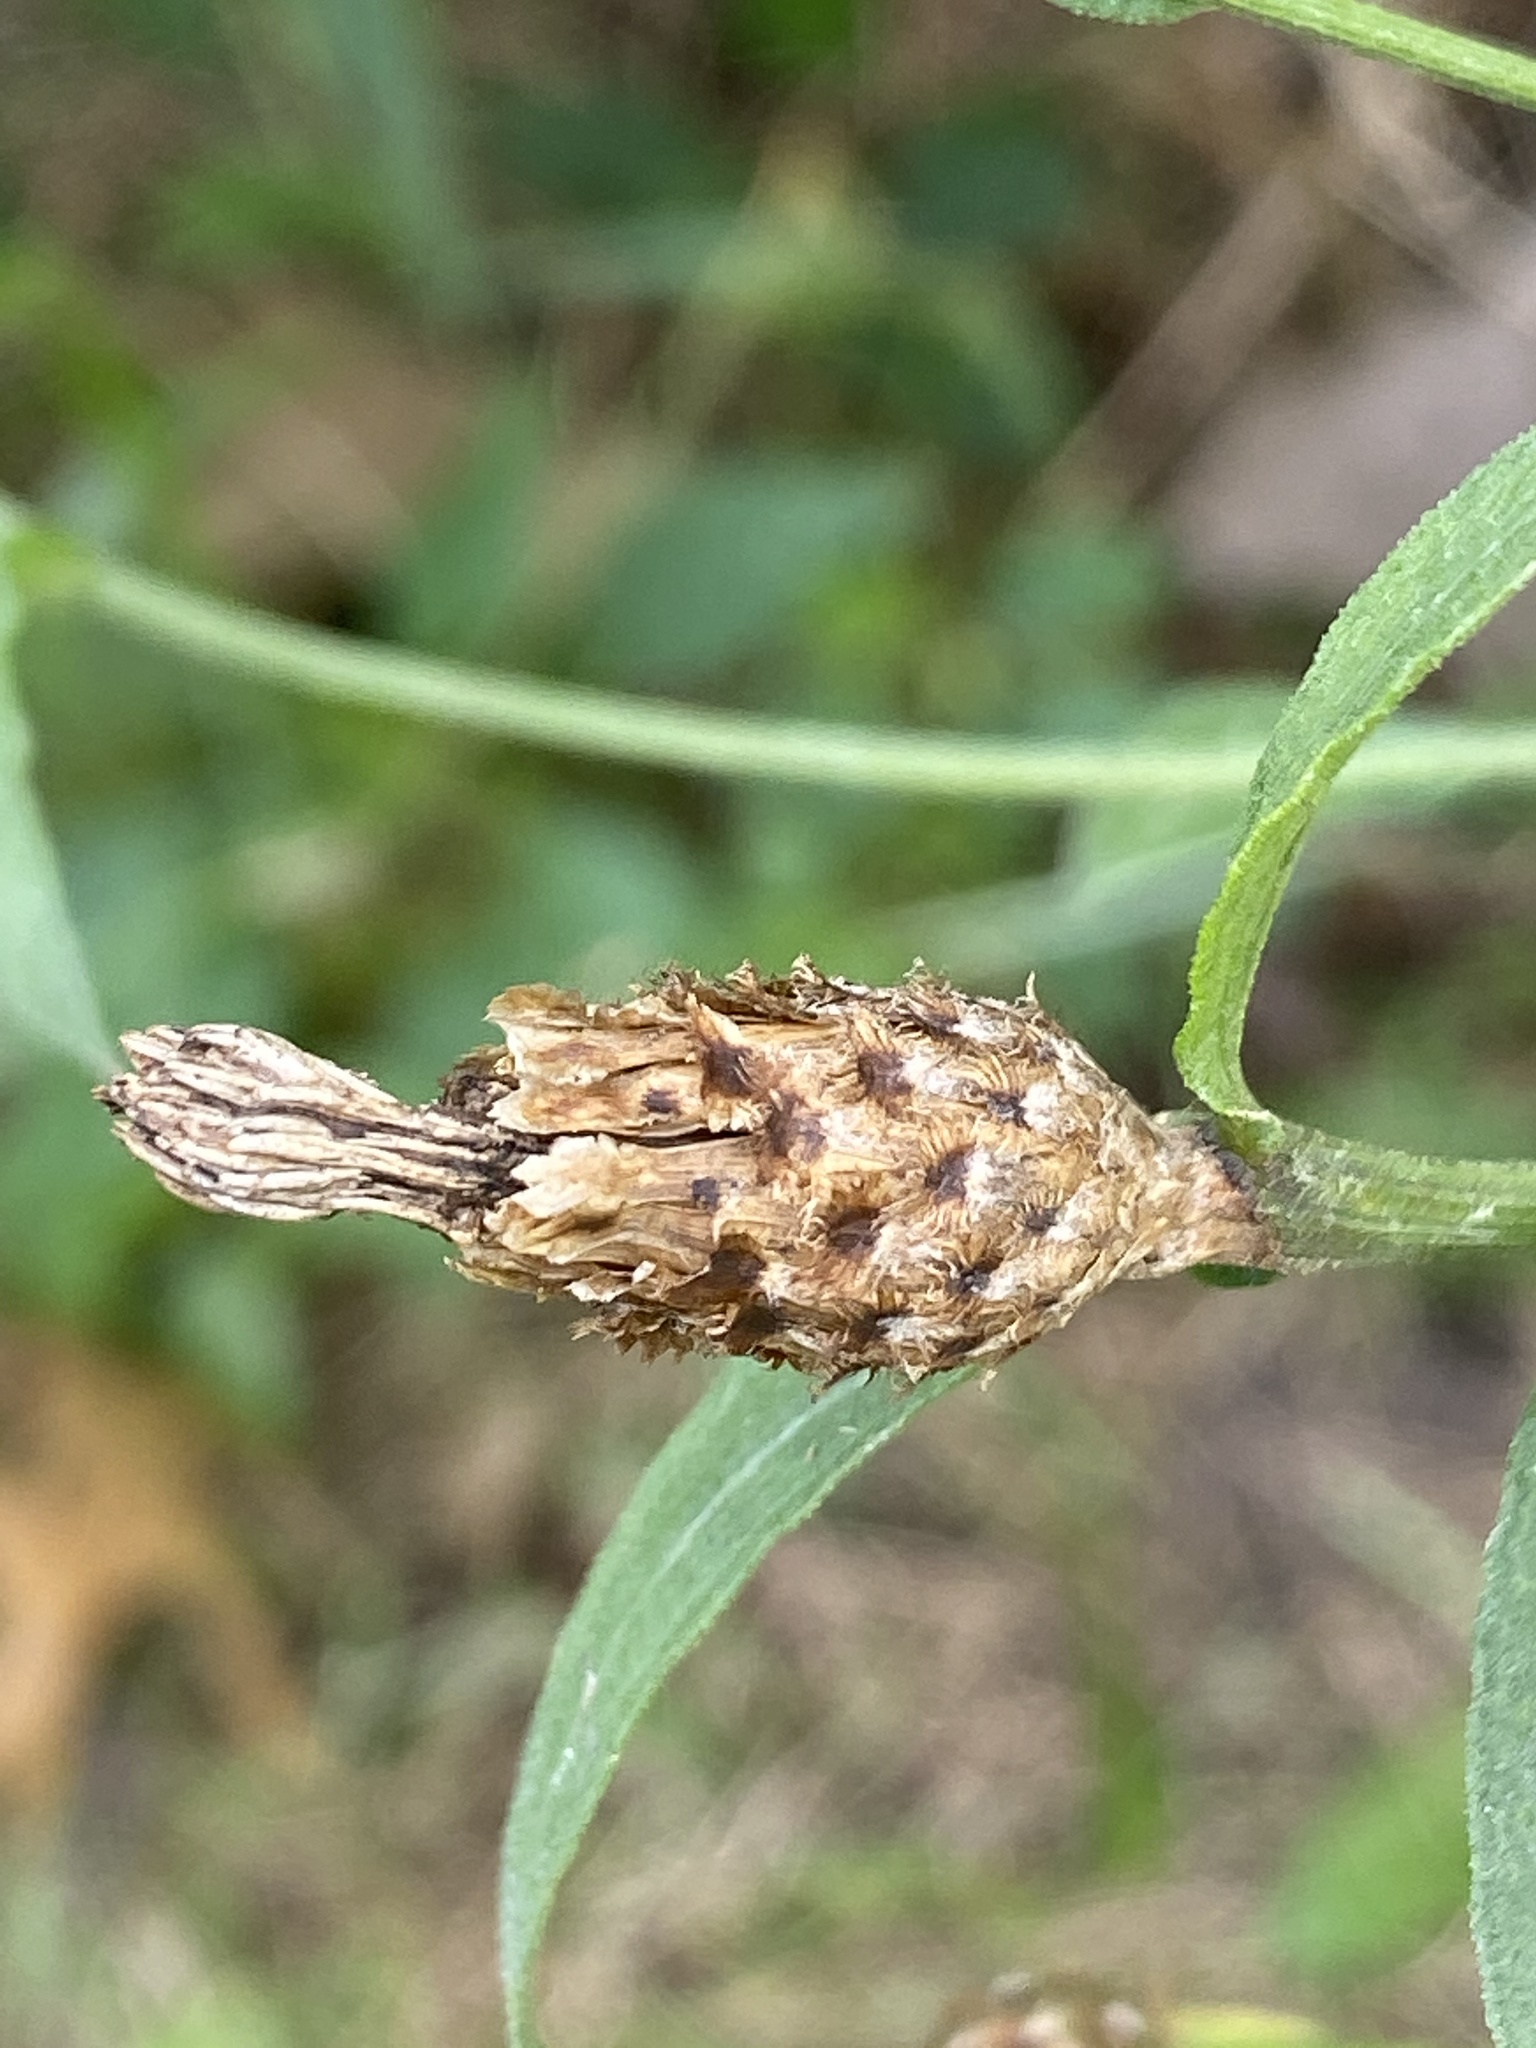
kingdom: Plantae
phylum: Tracheophyta
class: Magnoliopsida
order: Asterales
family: Asteraceae
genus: Centaurea
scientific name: Centaurea nigrescens
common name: Tyrol knapweed
